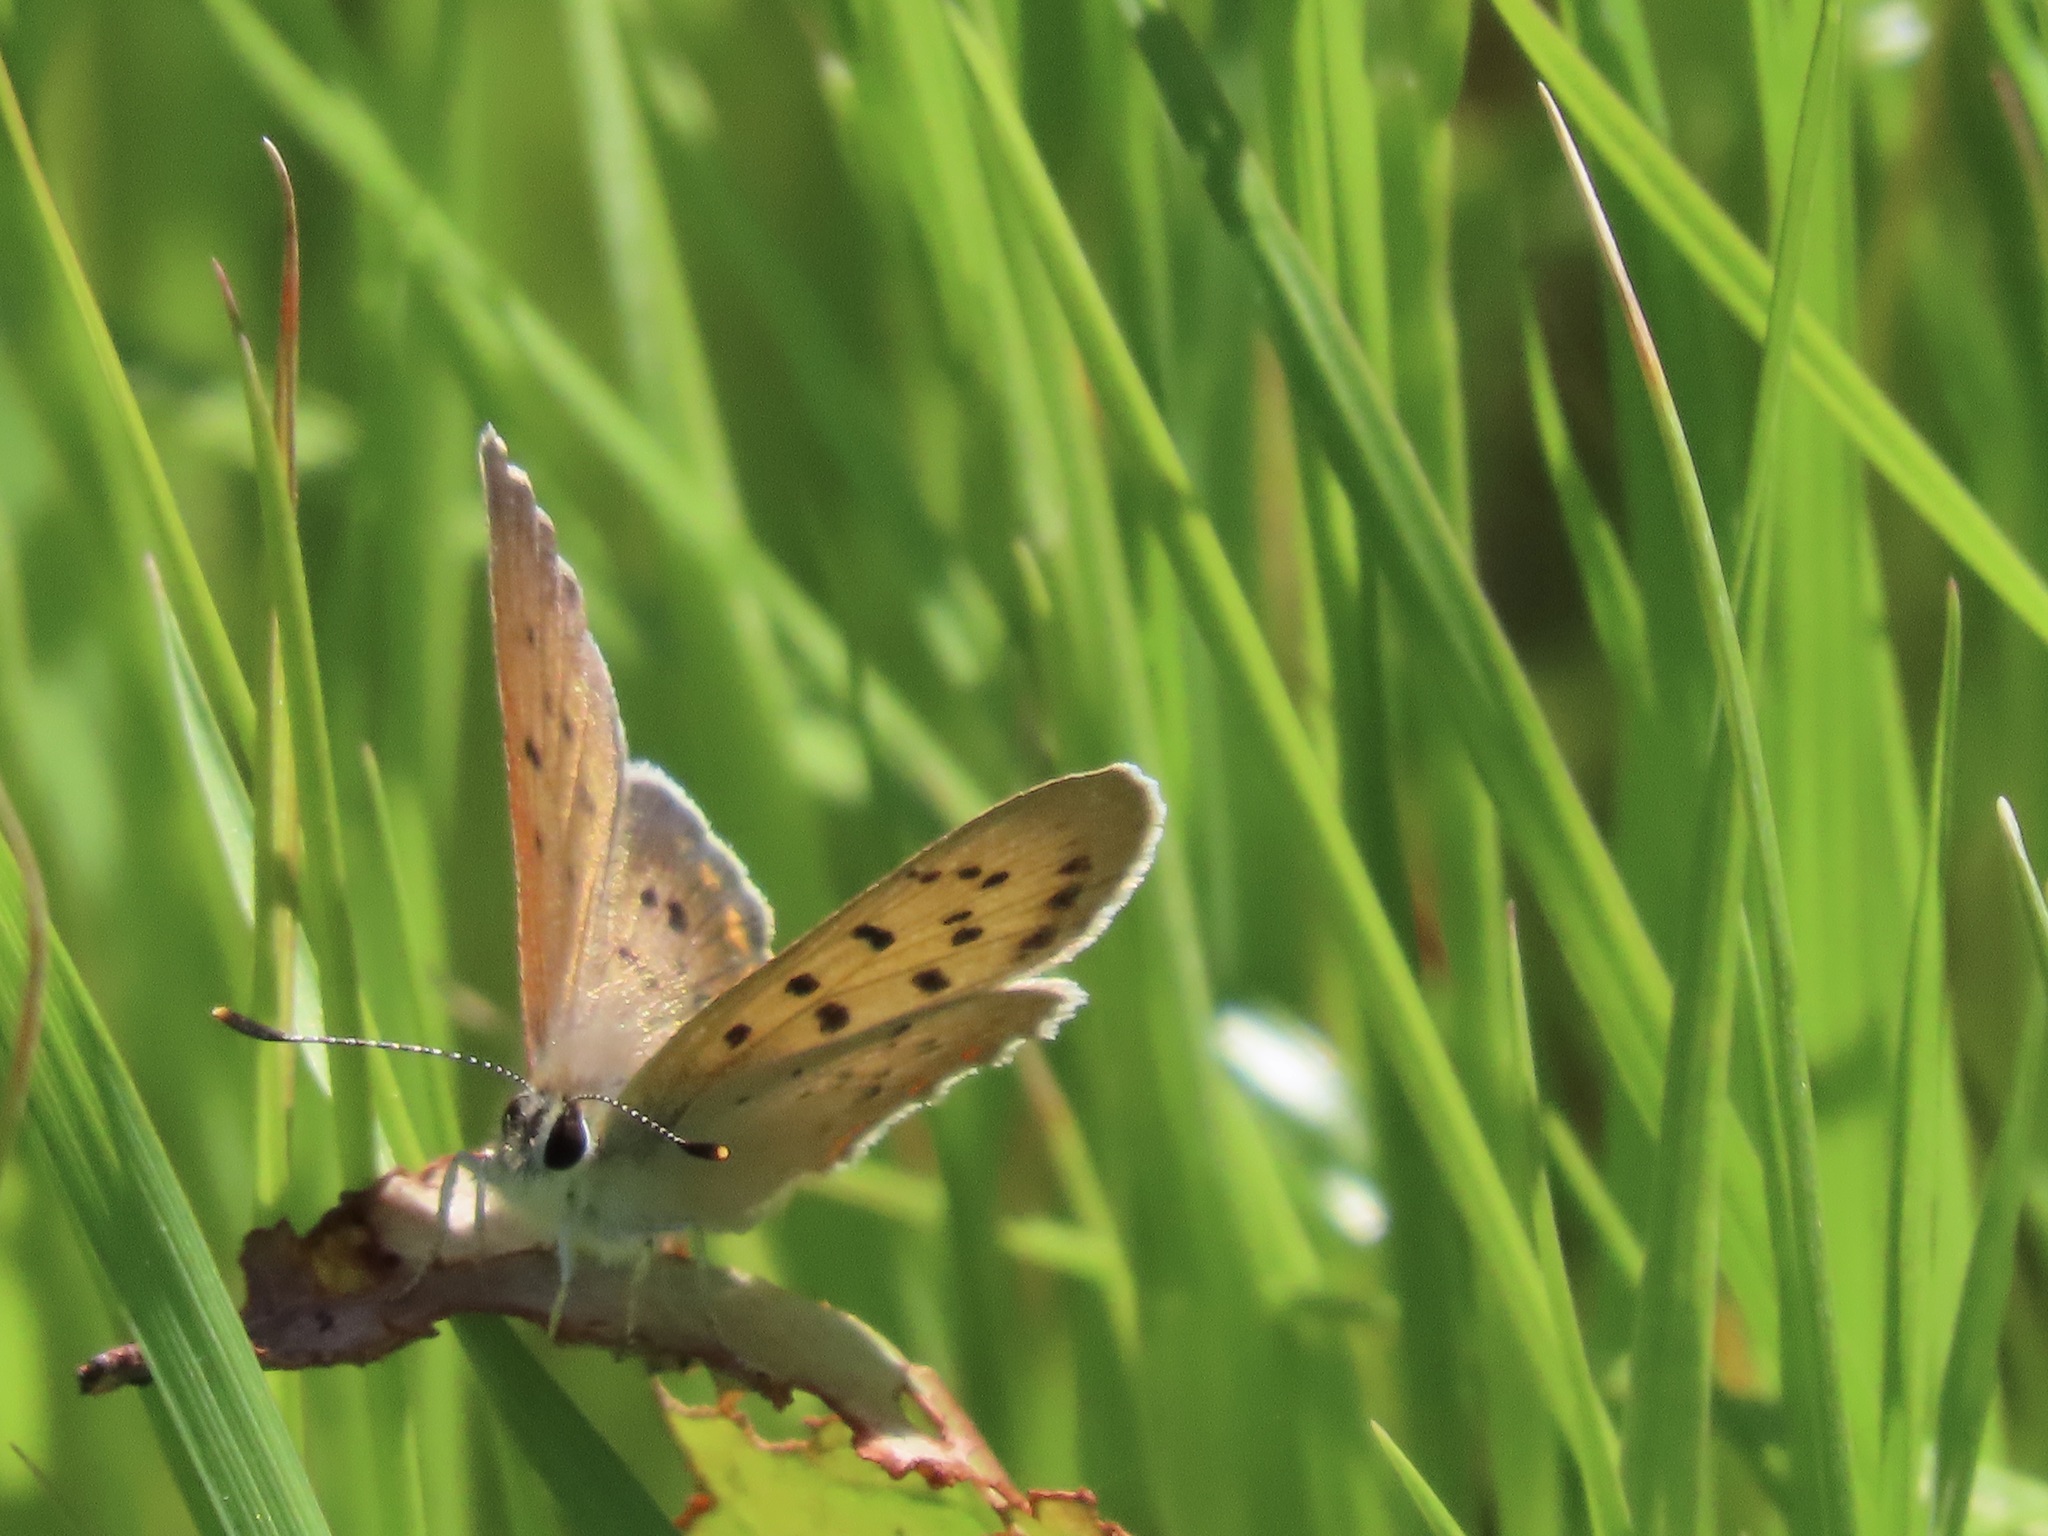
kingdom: Animalia
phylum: Arthropoda
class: Insecta
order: Lepidoptera
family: Lycaenidae
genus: Tharsalea
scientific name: Tharsalea helloides
